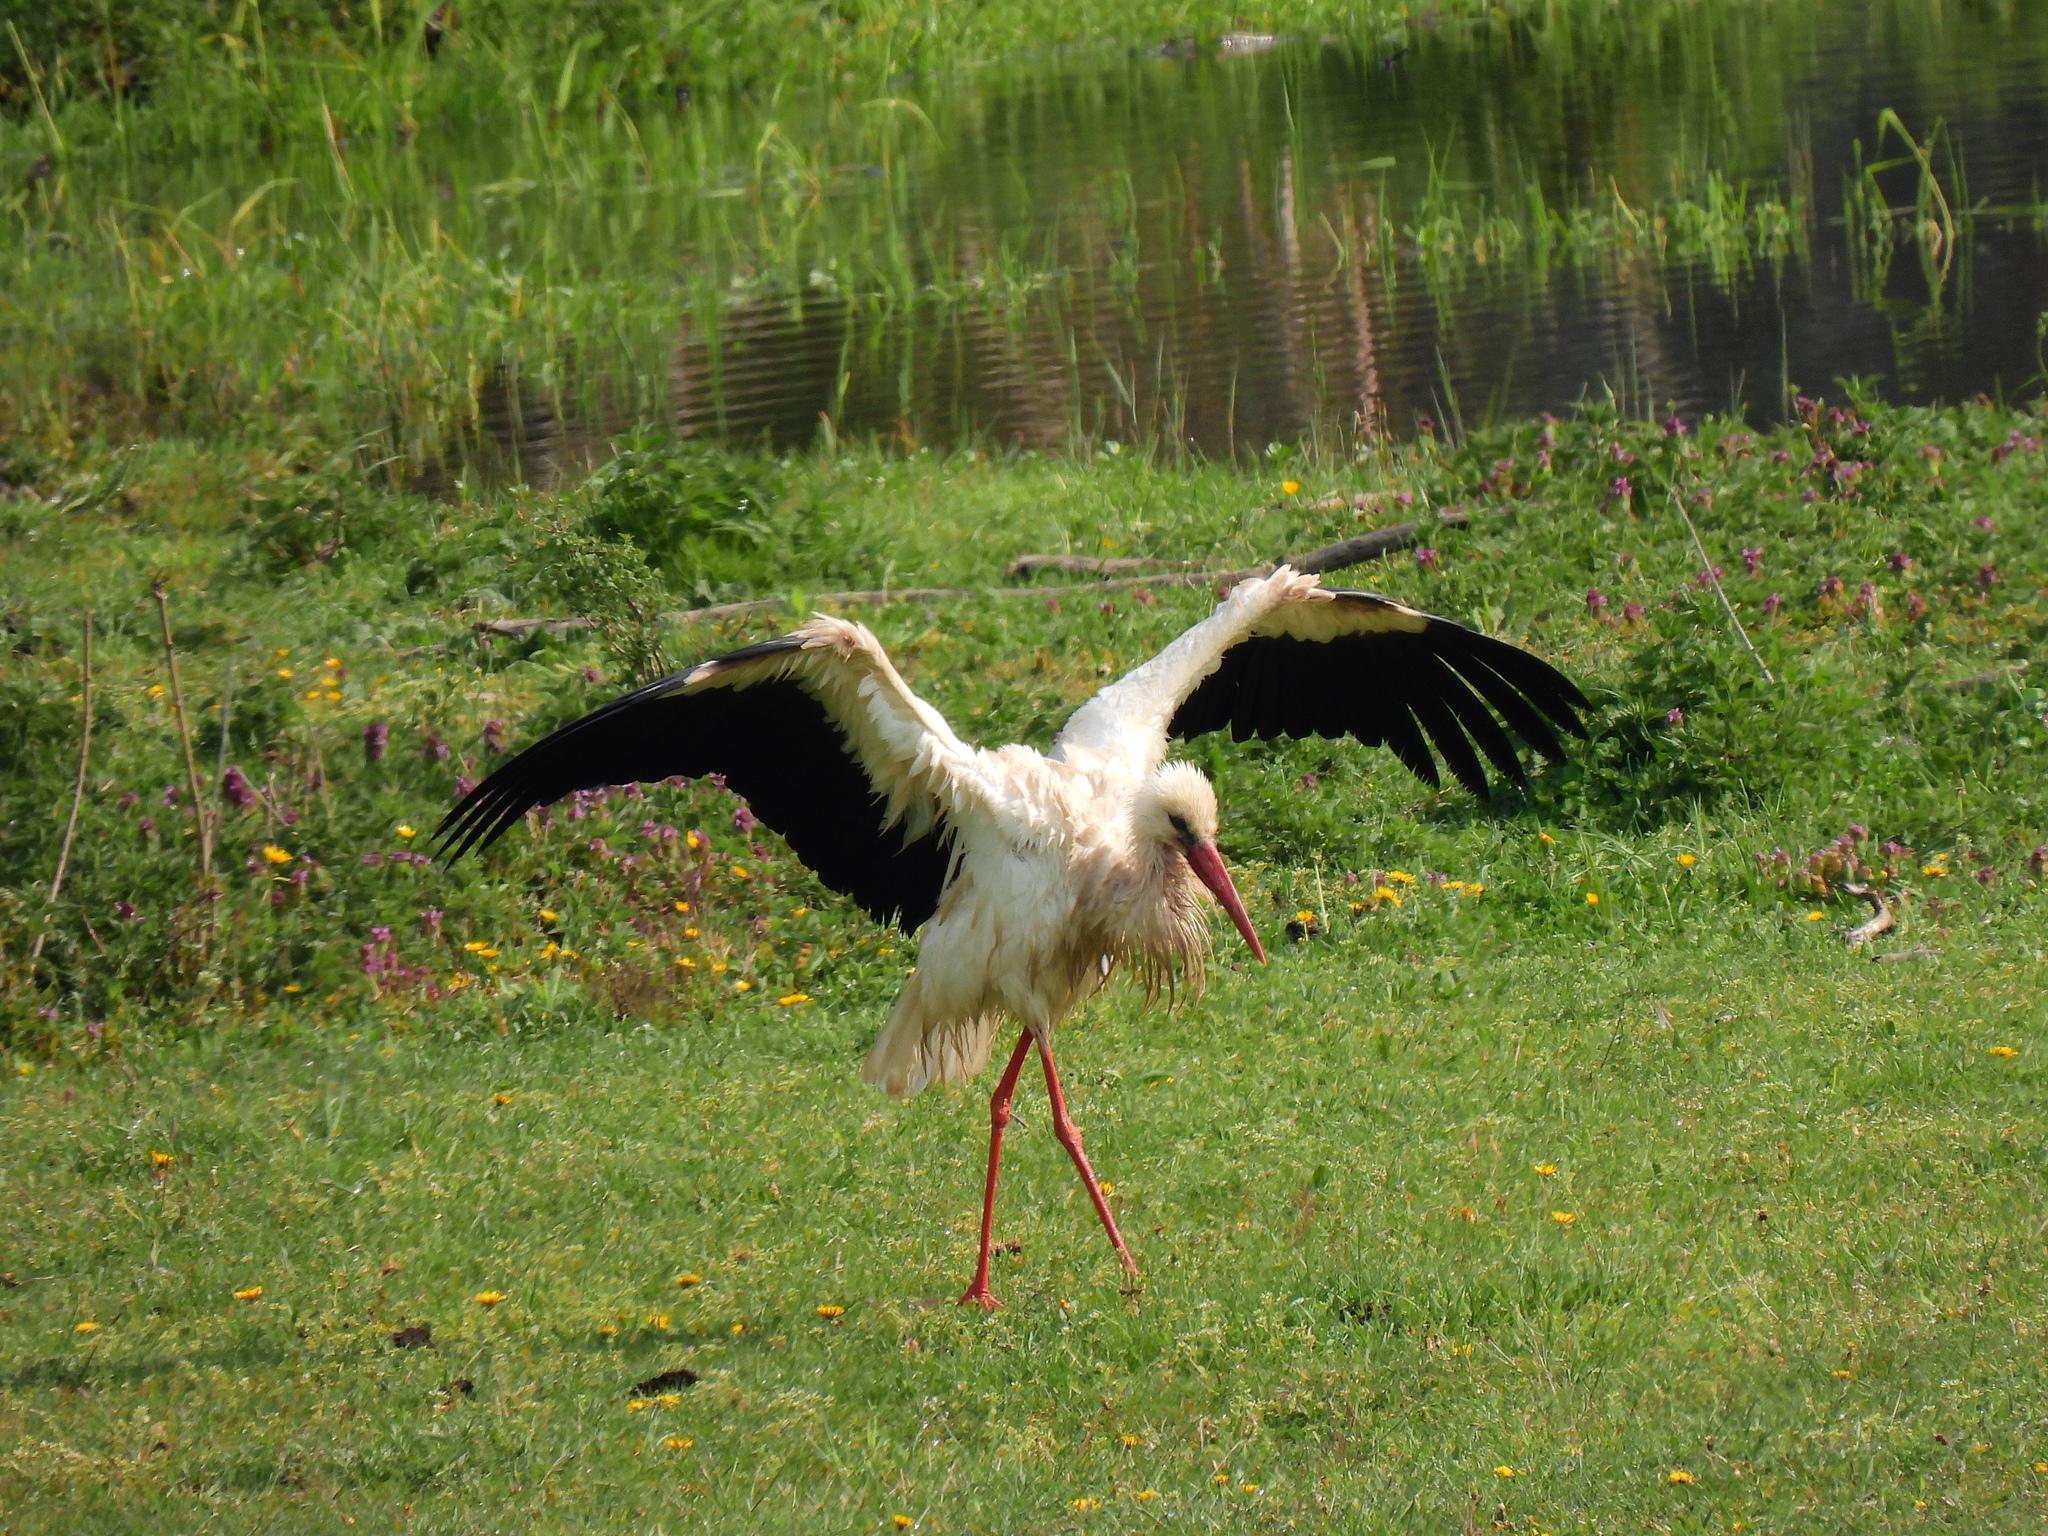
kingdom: Animalia
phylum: Chordata
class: Aves
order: Ciconiiformes
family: Ciconiidae
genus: Ciconia
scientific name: Ciconia ciconia
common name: White stork
